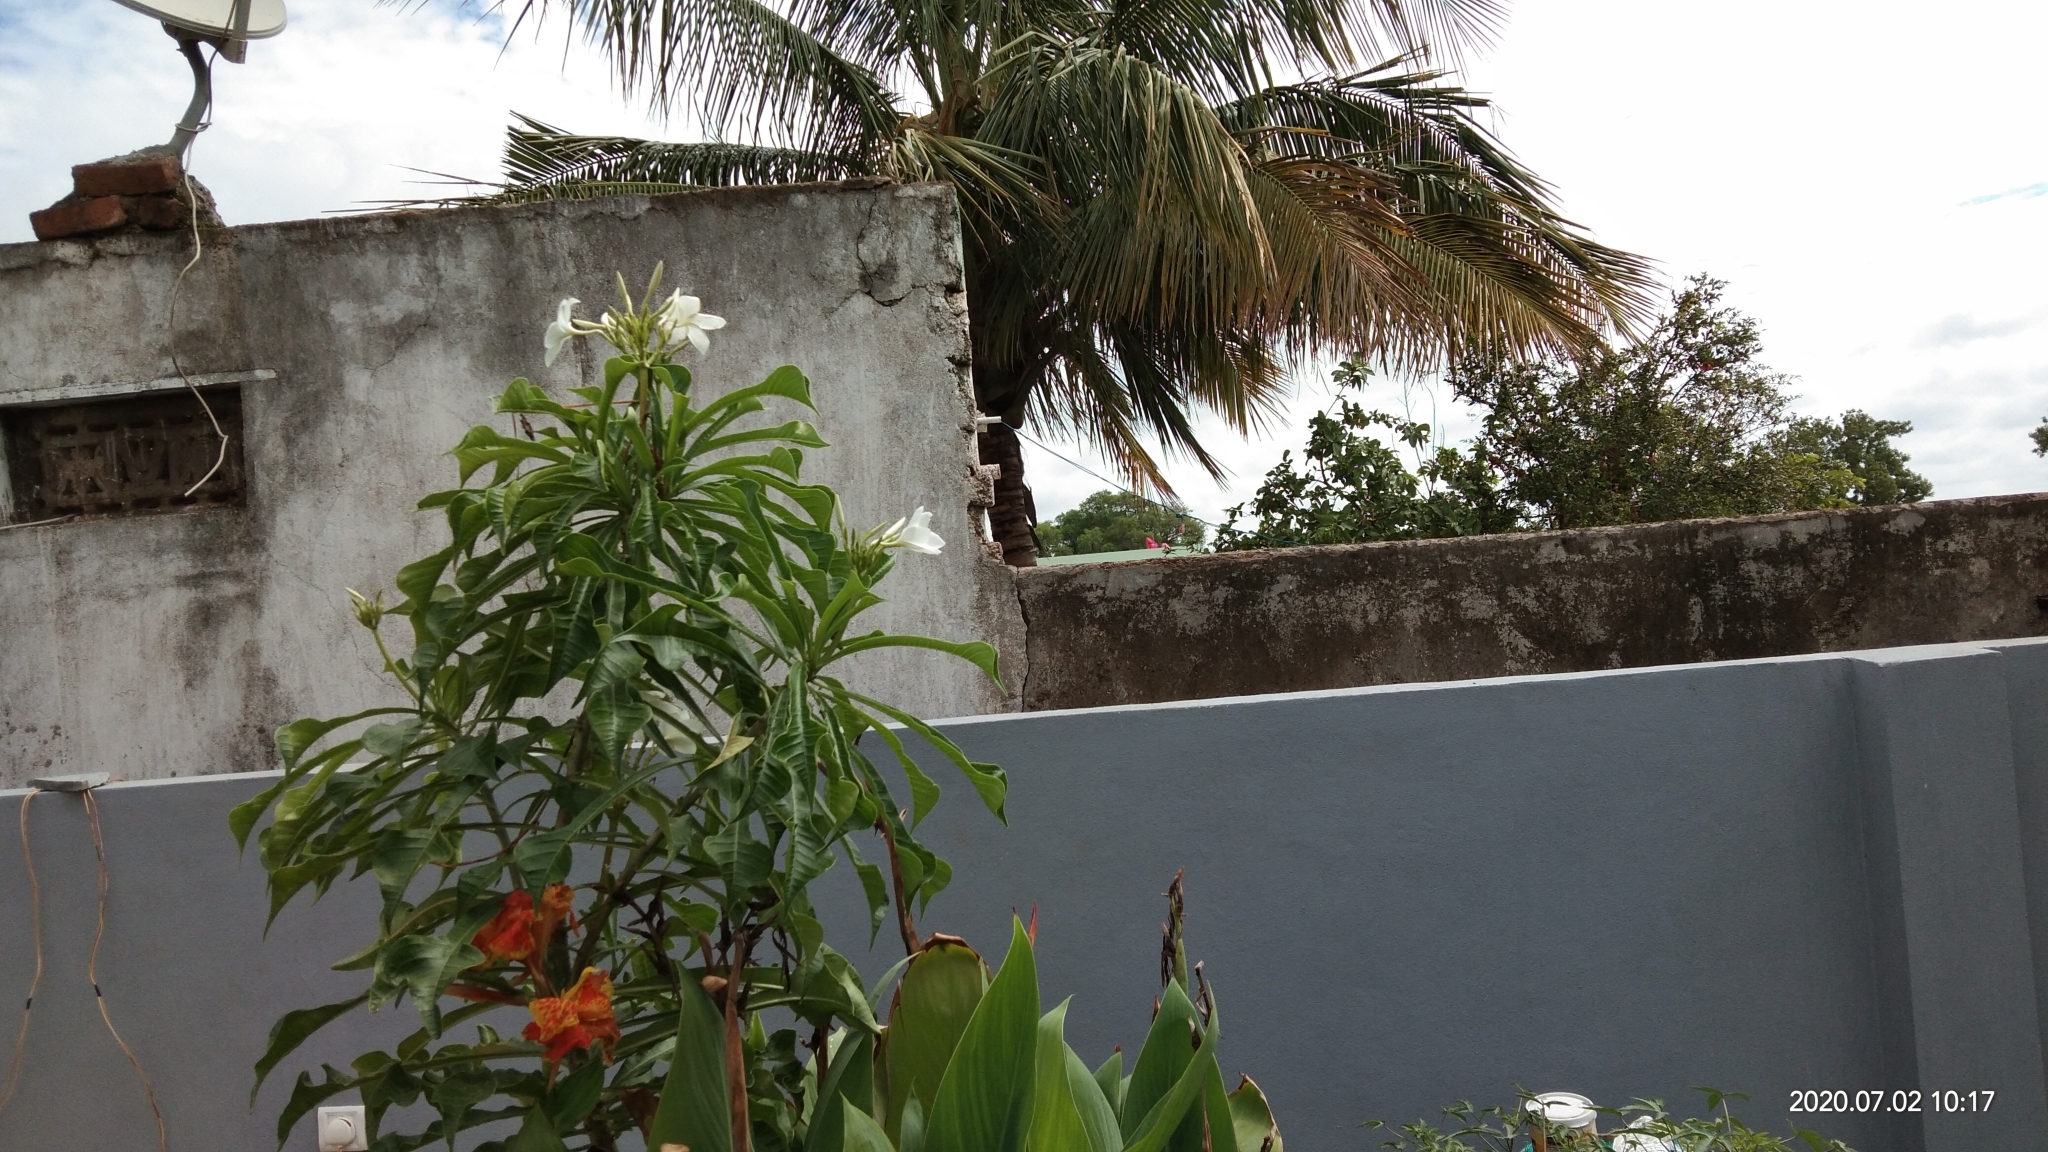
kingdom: Plantae
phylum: Tracheophyta
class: Liliopsida
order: Arecales
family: Arecaceae
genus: Cocos
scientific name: Cocos nucifera
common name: Coconut palm
